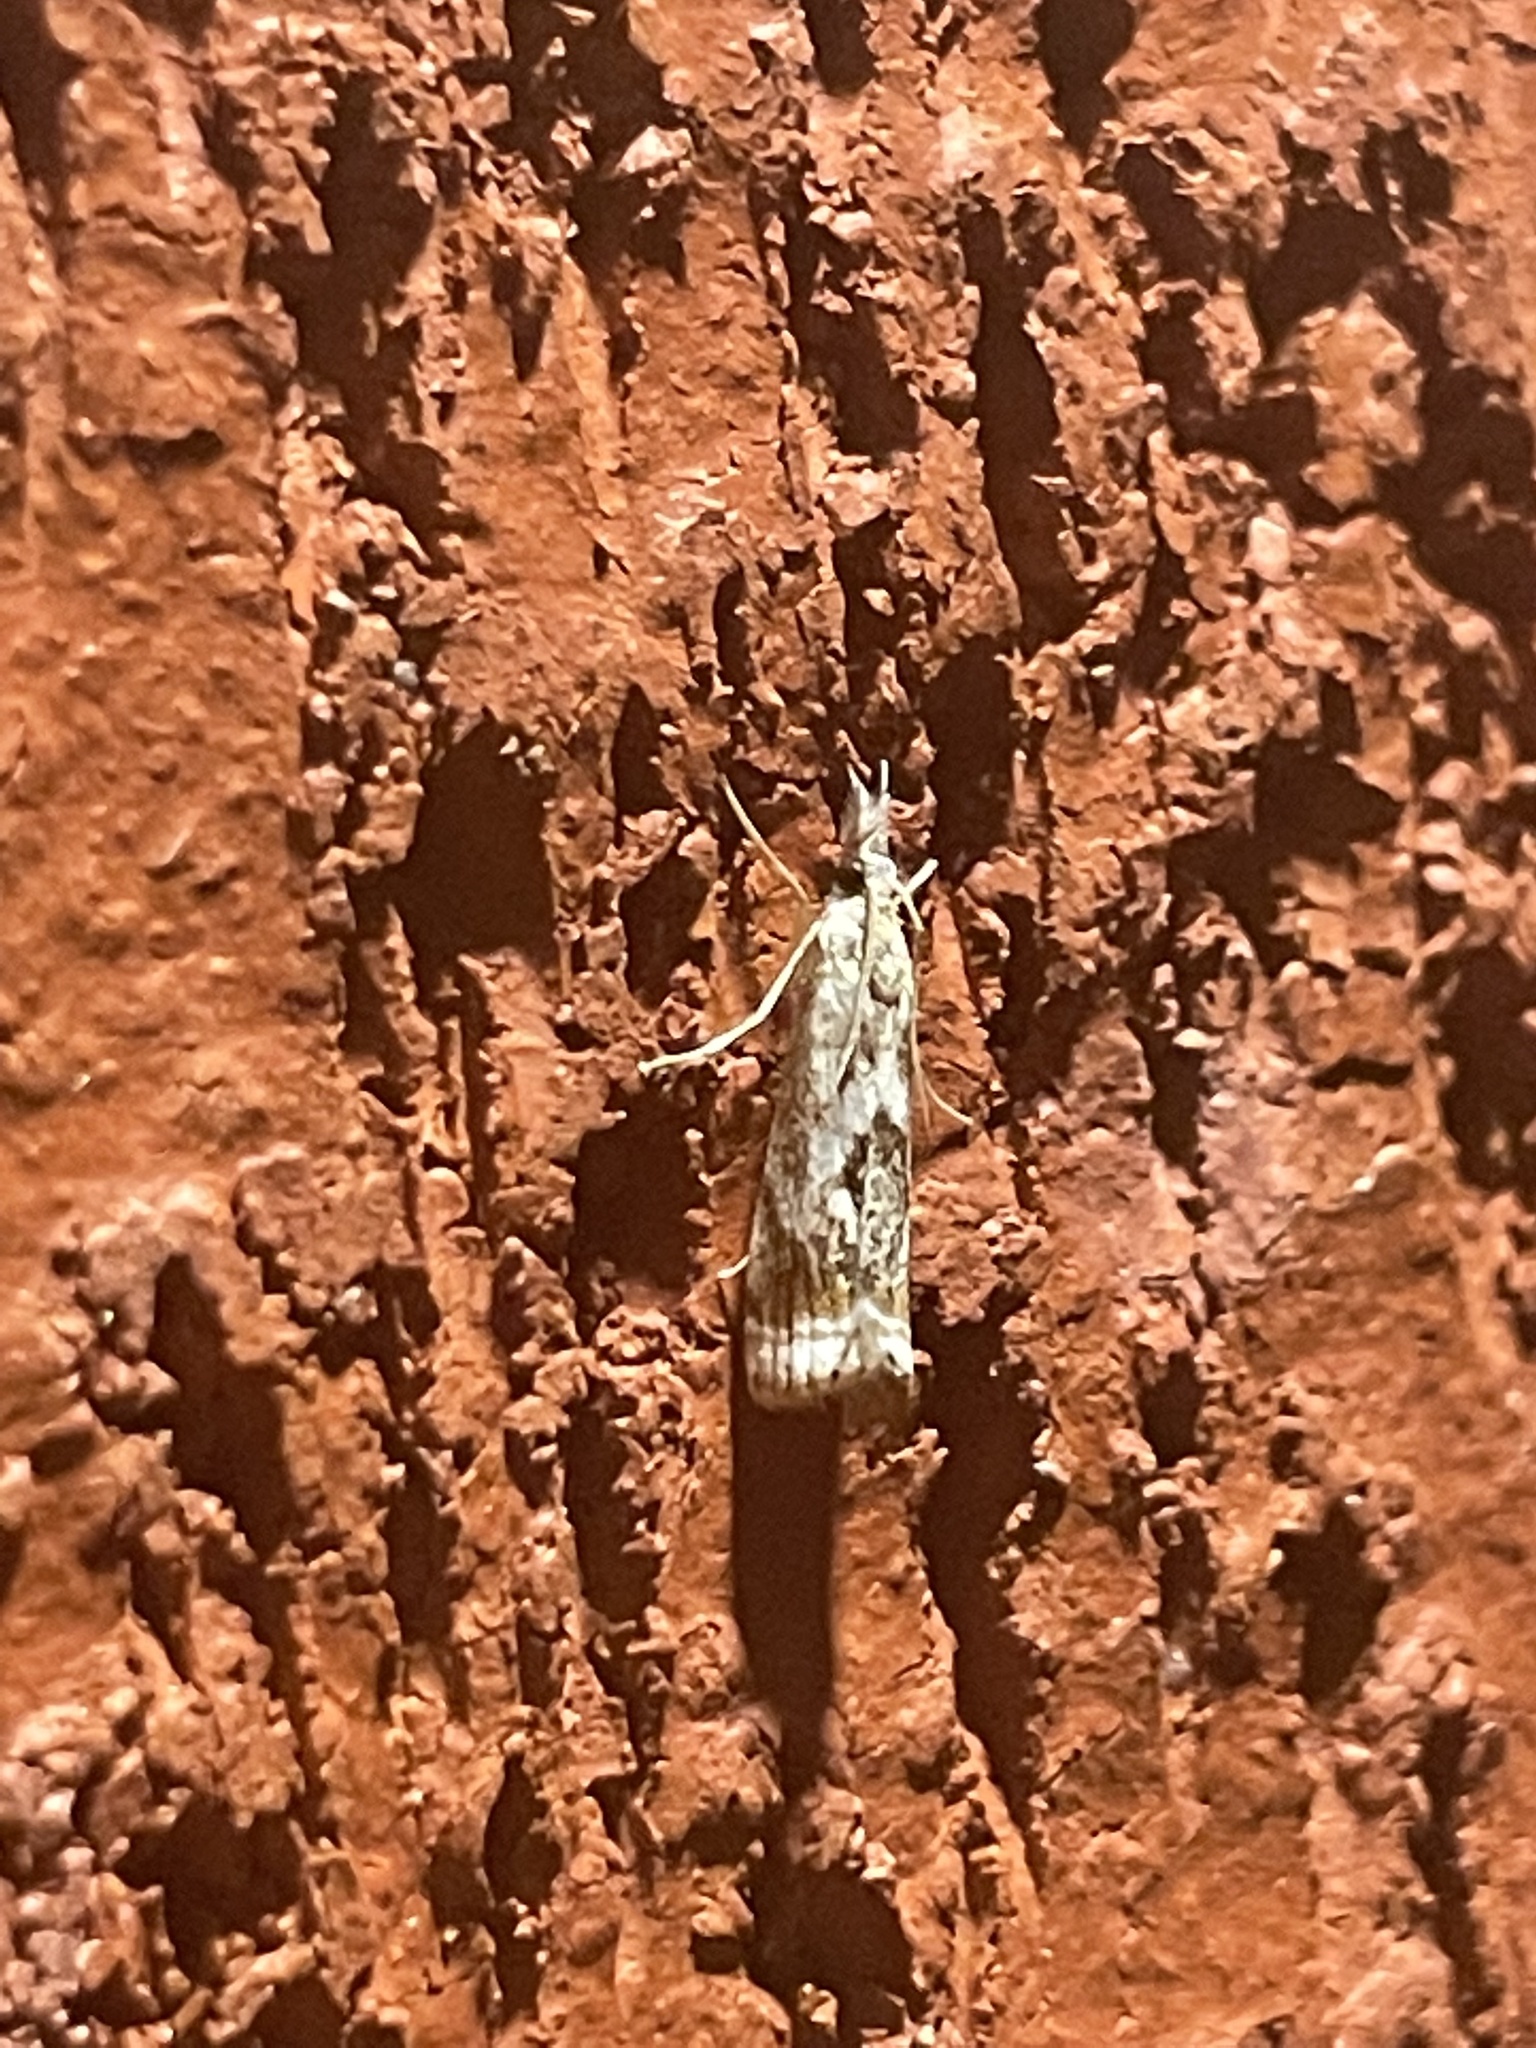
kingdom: Animalia
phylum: Arthropoda
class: Insecta
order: Lepidoptera
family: Crambidae
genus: Microcrambus
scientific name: Microcrambus elegans
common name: Elegant grass-veneer
